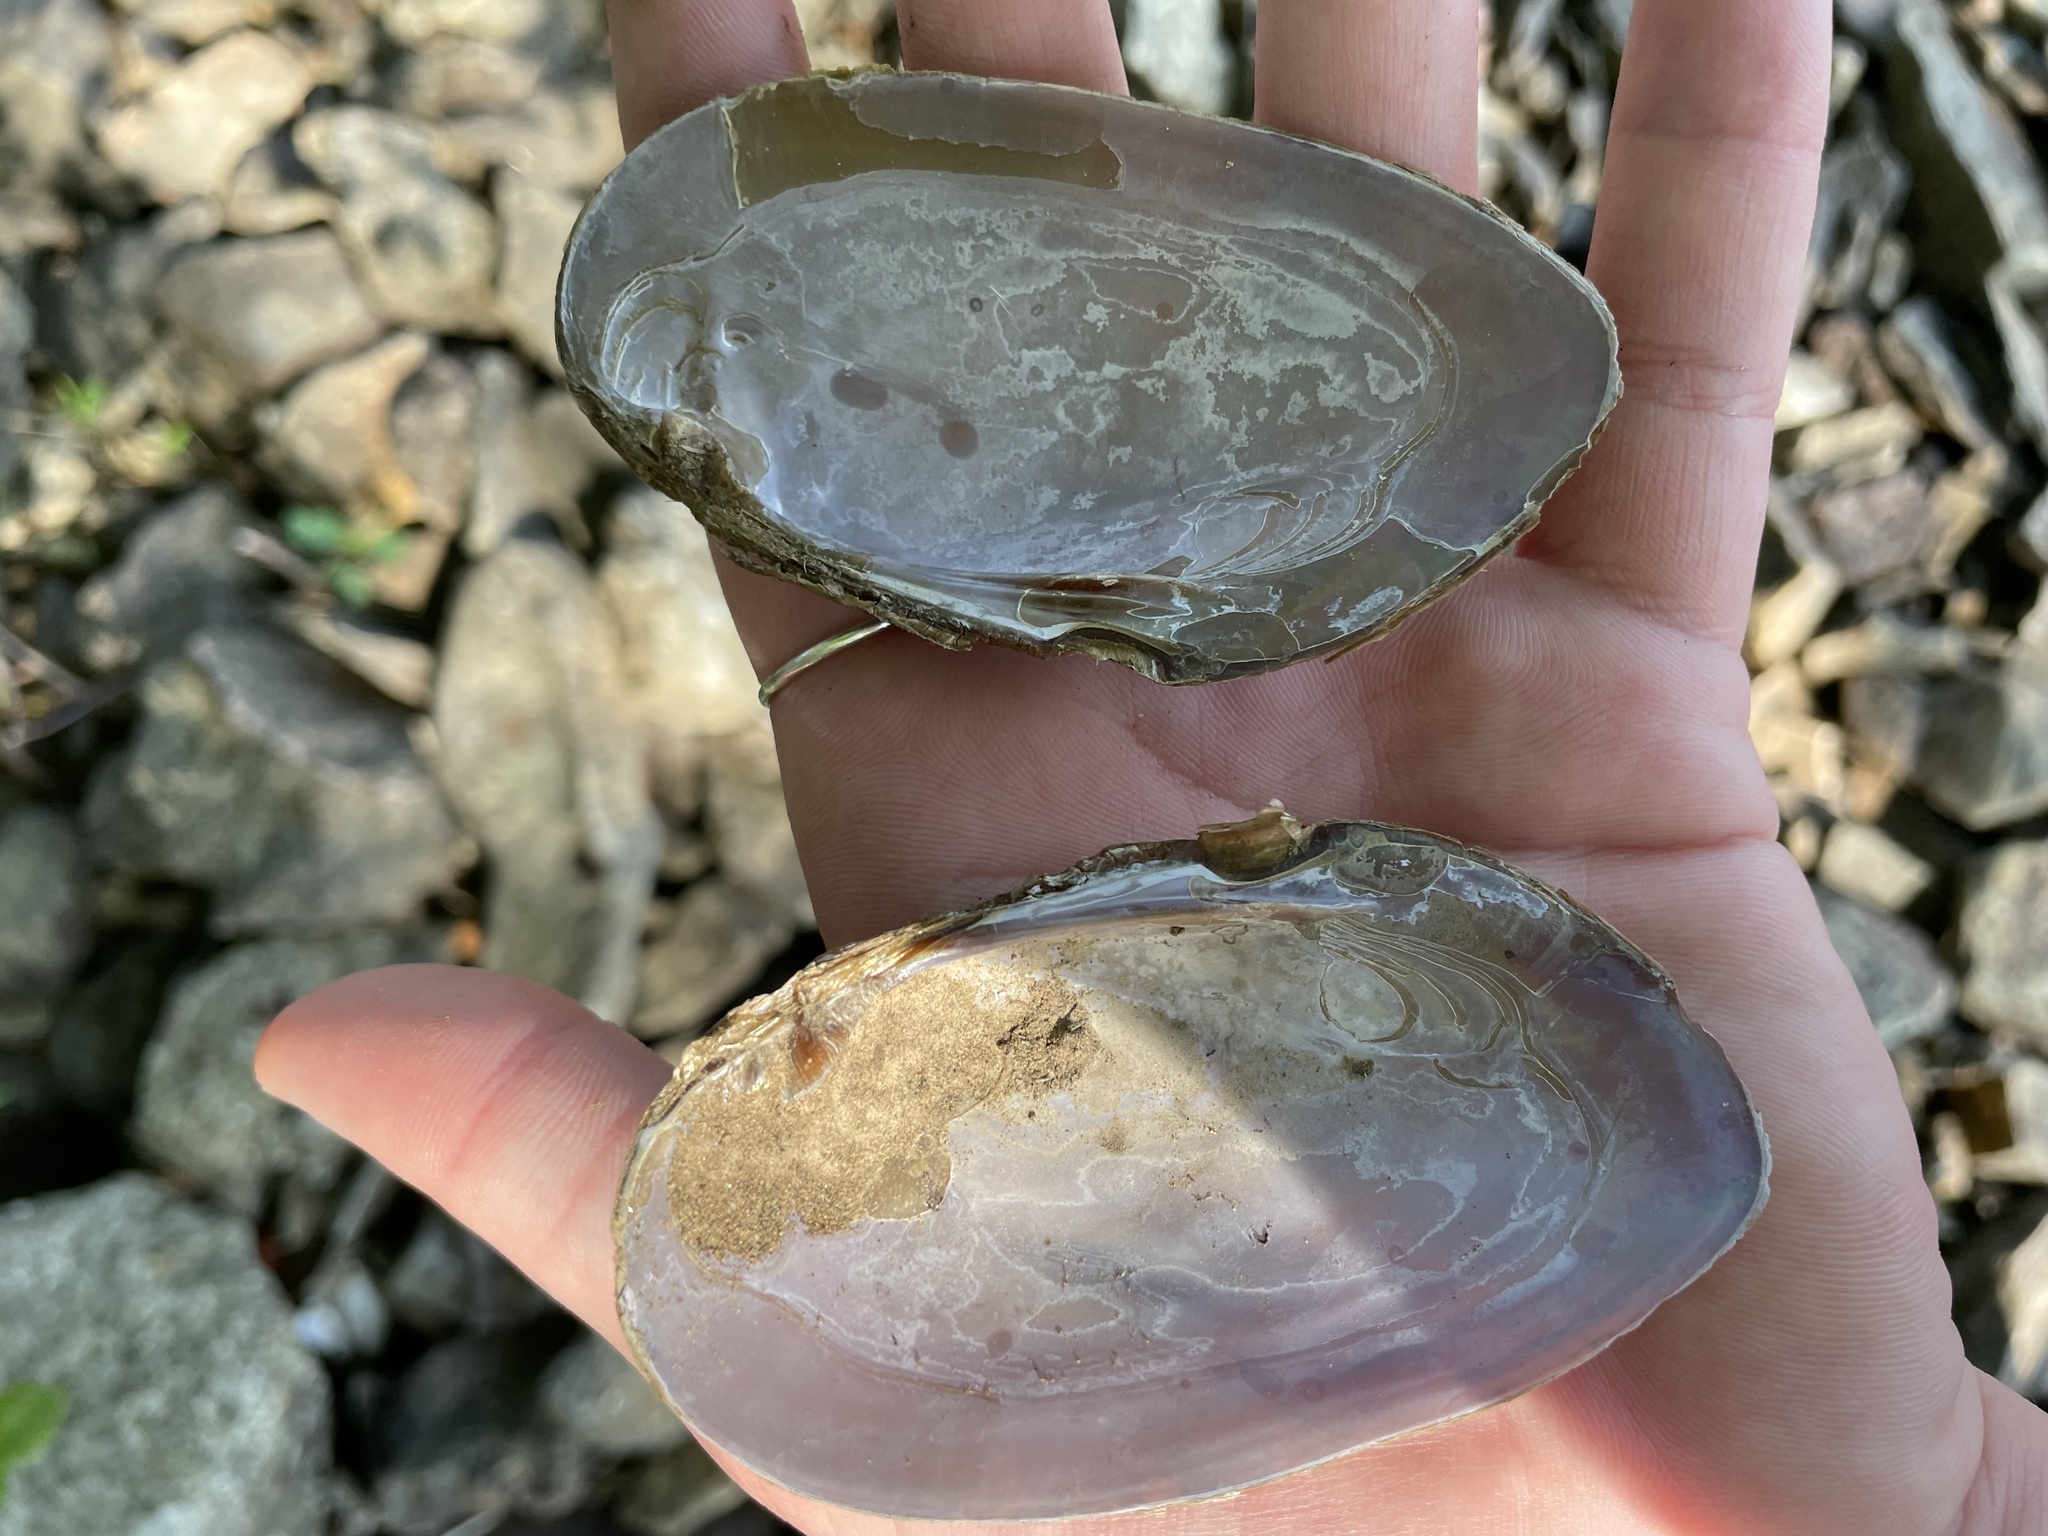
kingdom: Animalia
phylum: Mollusca
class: Bivalvia
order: Unionida
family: Unionidae
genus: Elliptio
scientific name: Elliptio complanata
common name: Eastern elliptio
